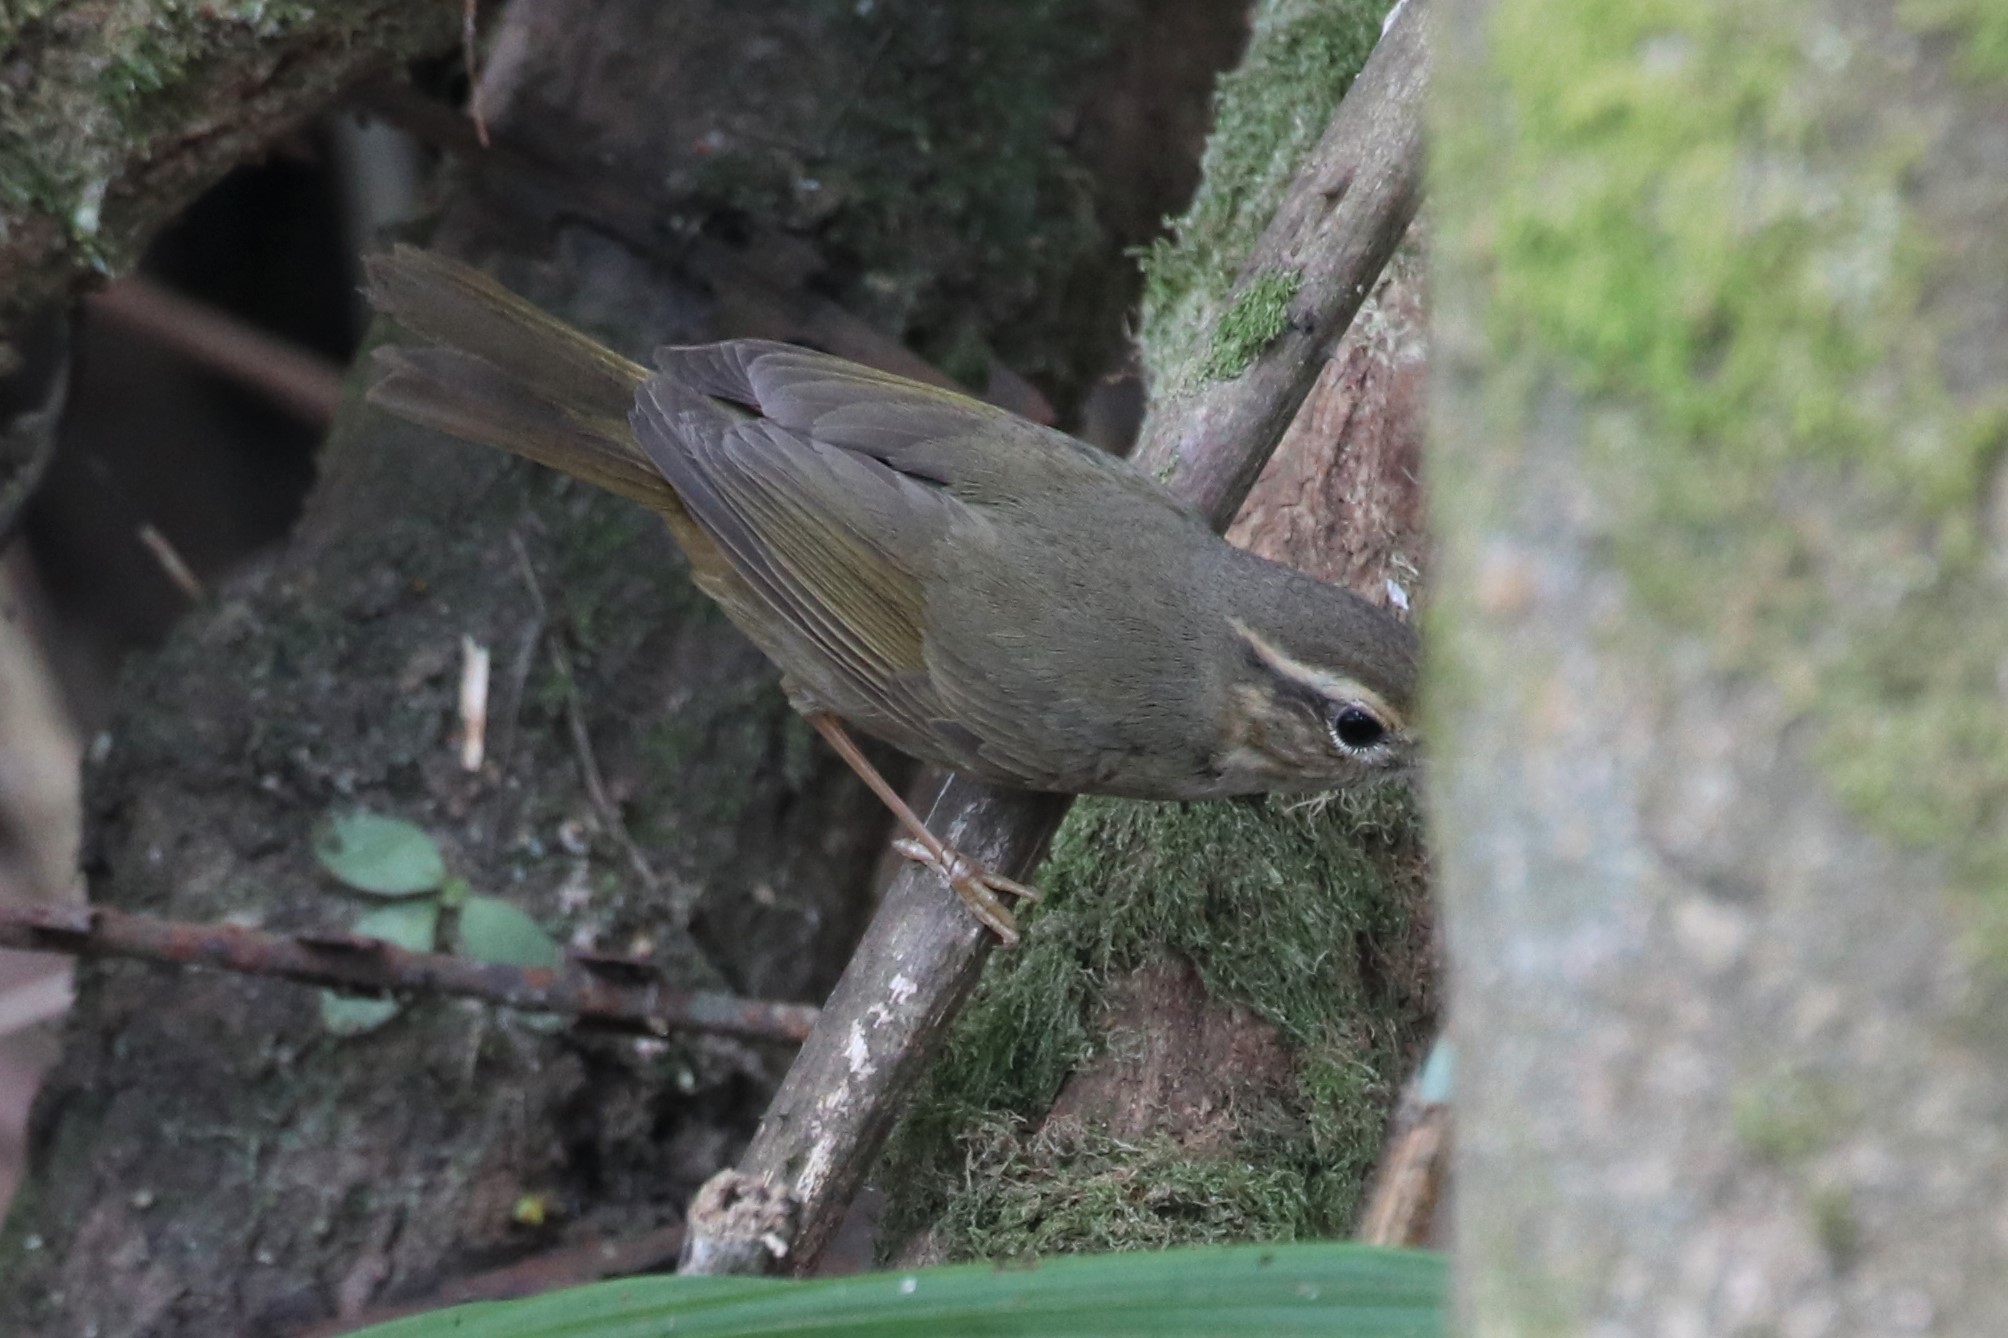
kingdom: Animalia
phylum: Chordata
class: Aves
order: Passeriformes
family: Phylloscopidae
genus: Phylloscopus
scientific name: Phylloscopus schwarzi
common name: Radde's warbler
